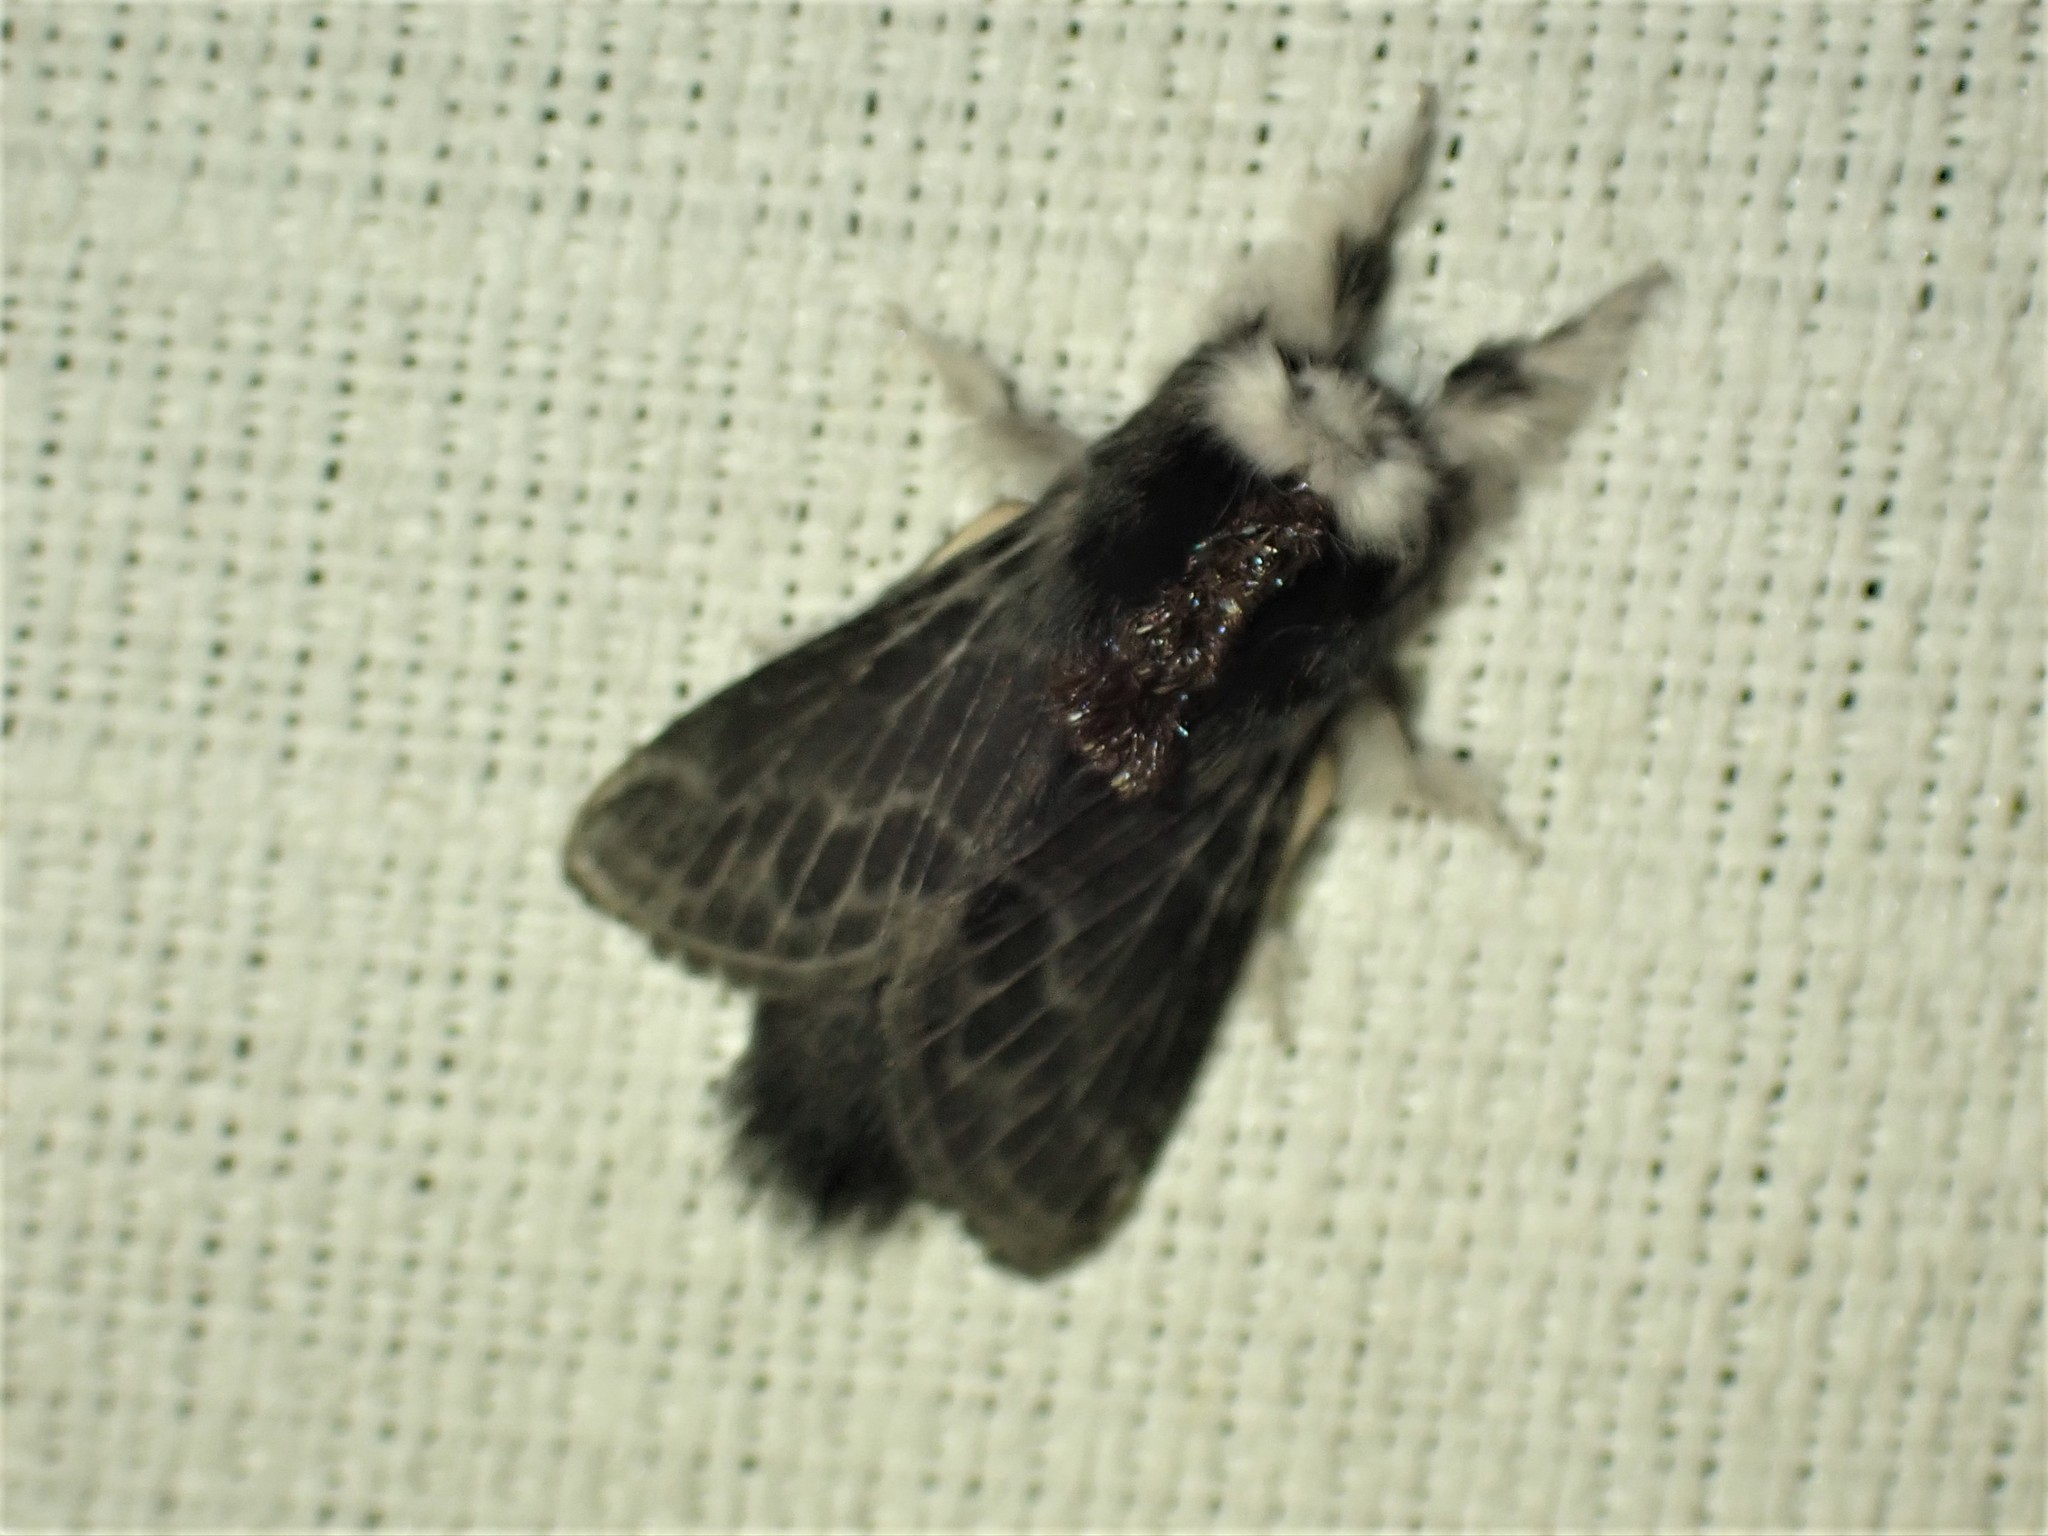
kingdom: Animalia
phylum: Arthropoda
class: Insecta
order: Lepidoptera
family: Lasiocampidae
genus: Tolype
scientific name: Tolype laricis
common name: Larch tolype moth
